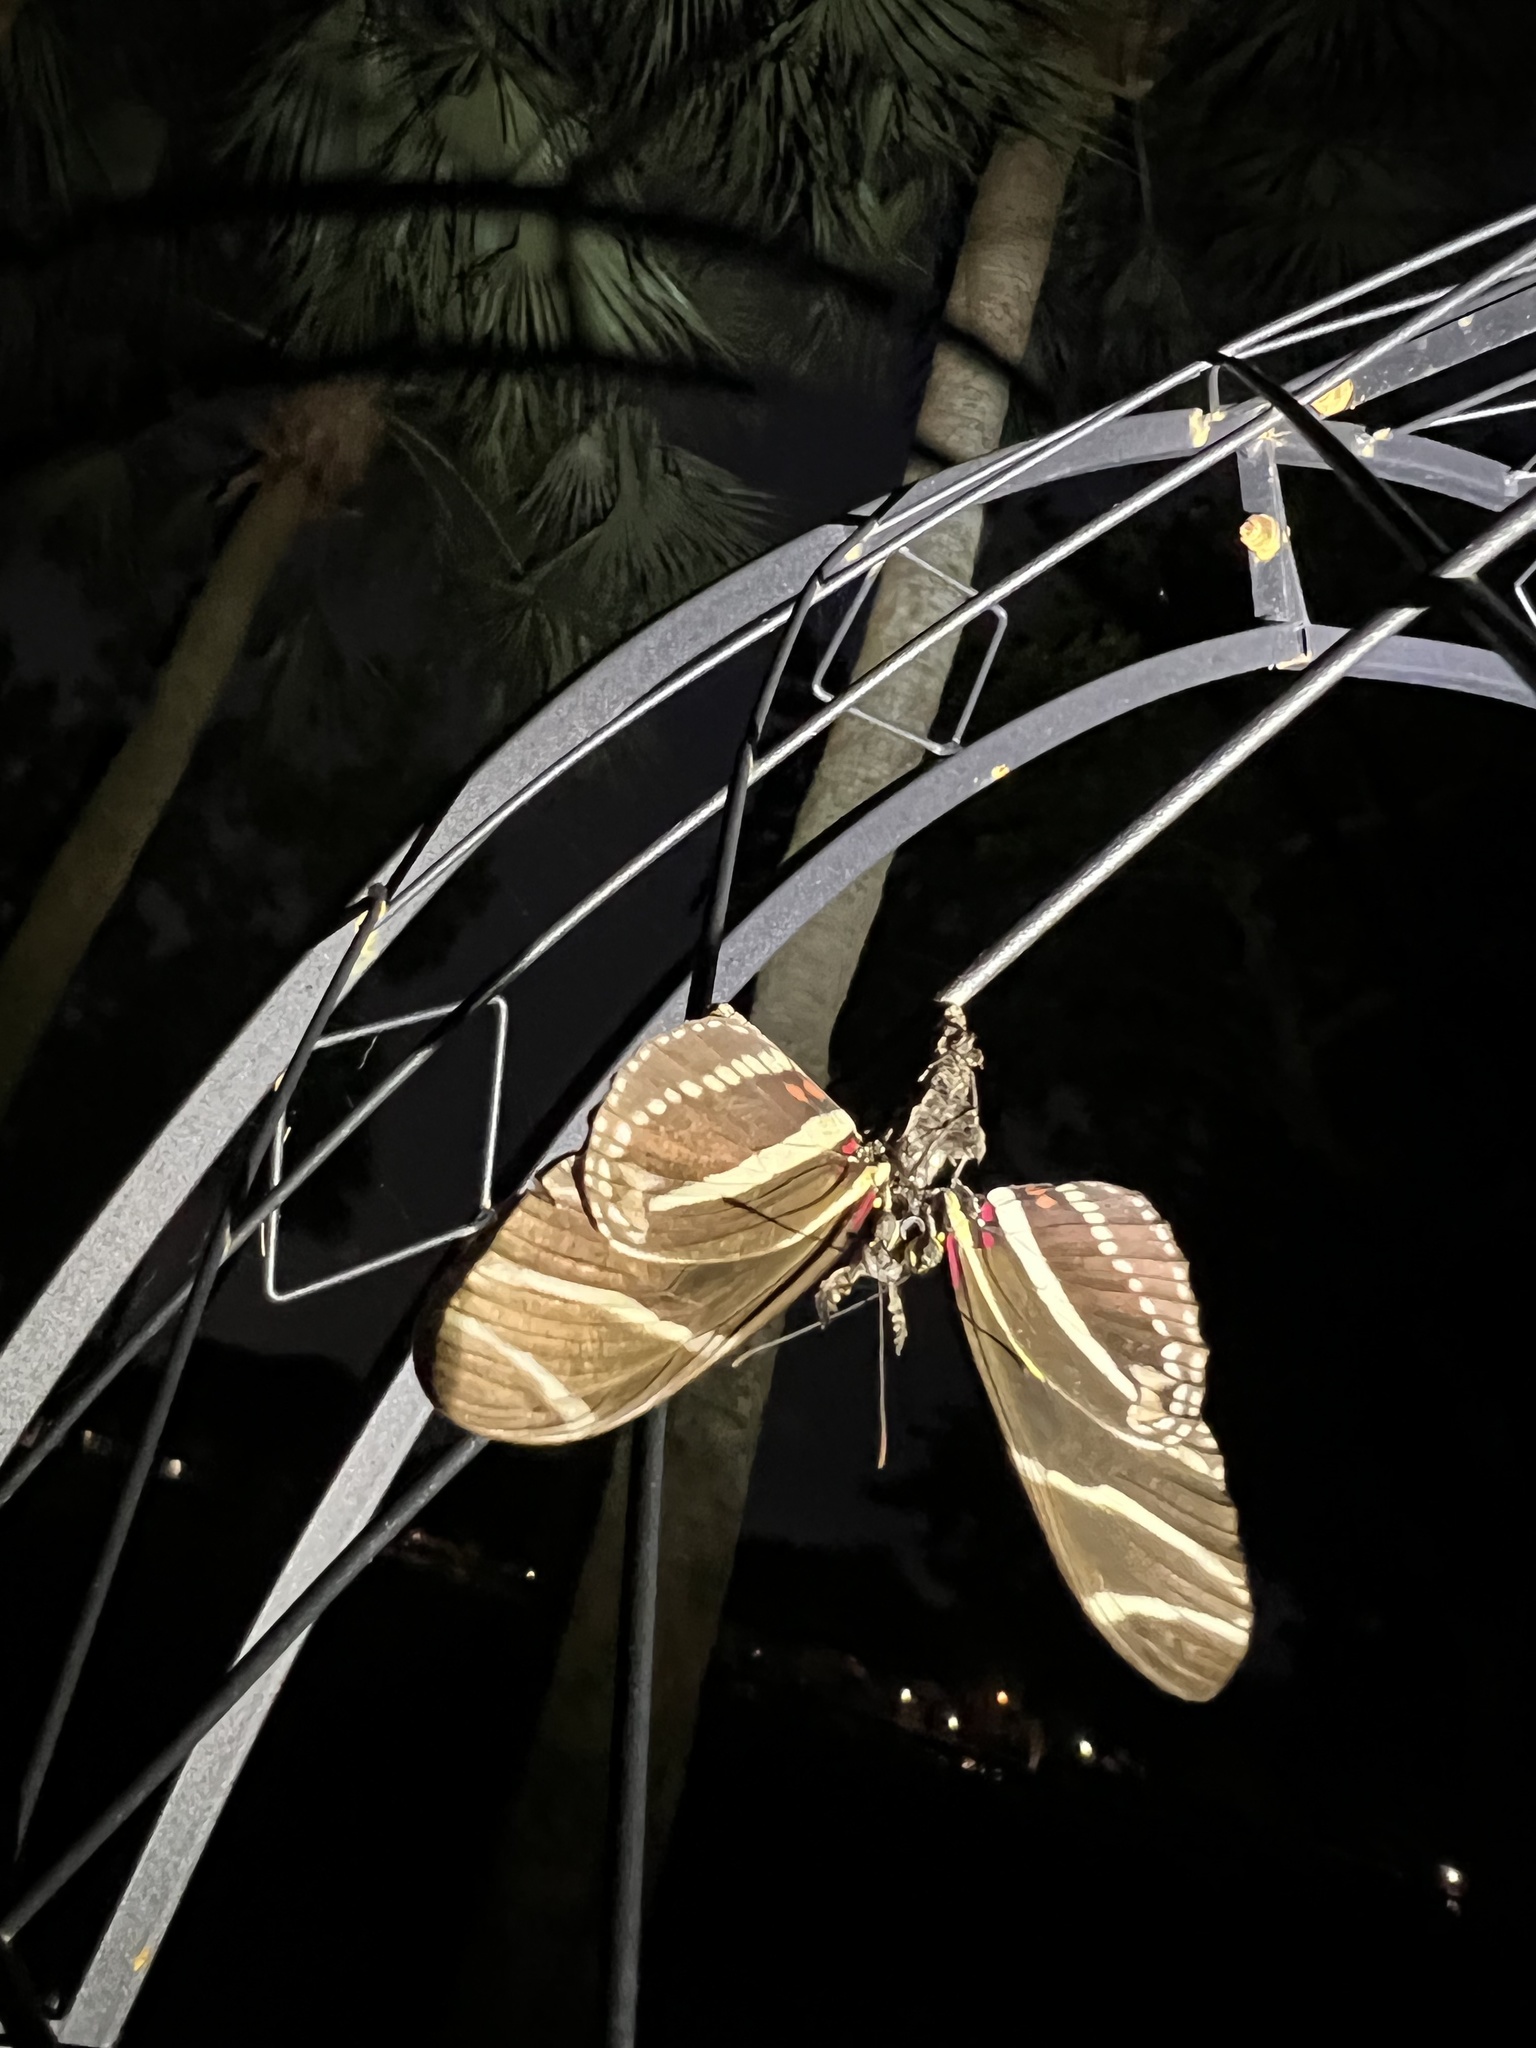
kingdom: Animalia
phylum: Arthropoda
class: Insecta
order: Lepidoptera
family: Nymphalidae
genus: Heliconius
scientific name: Heliconius charithonia
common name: Zebra long wing
